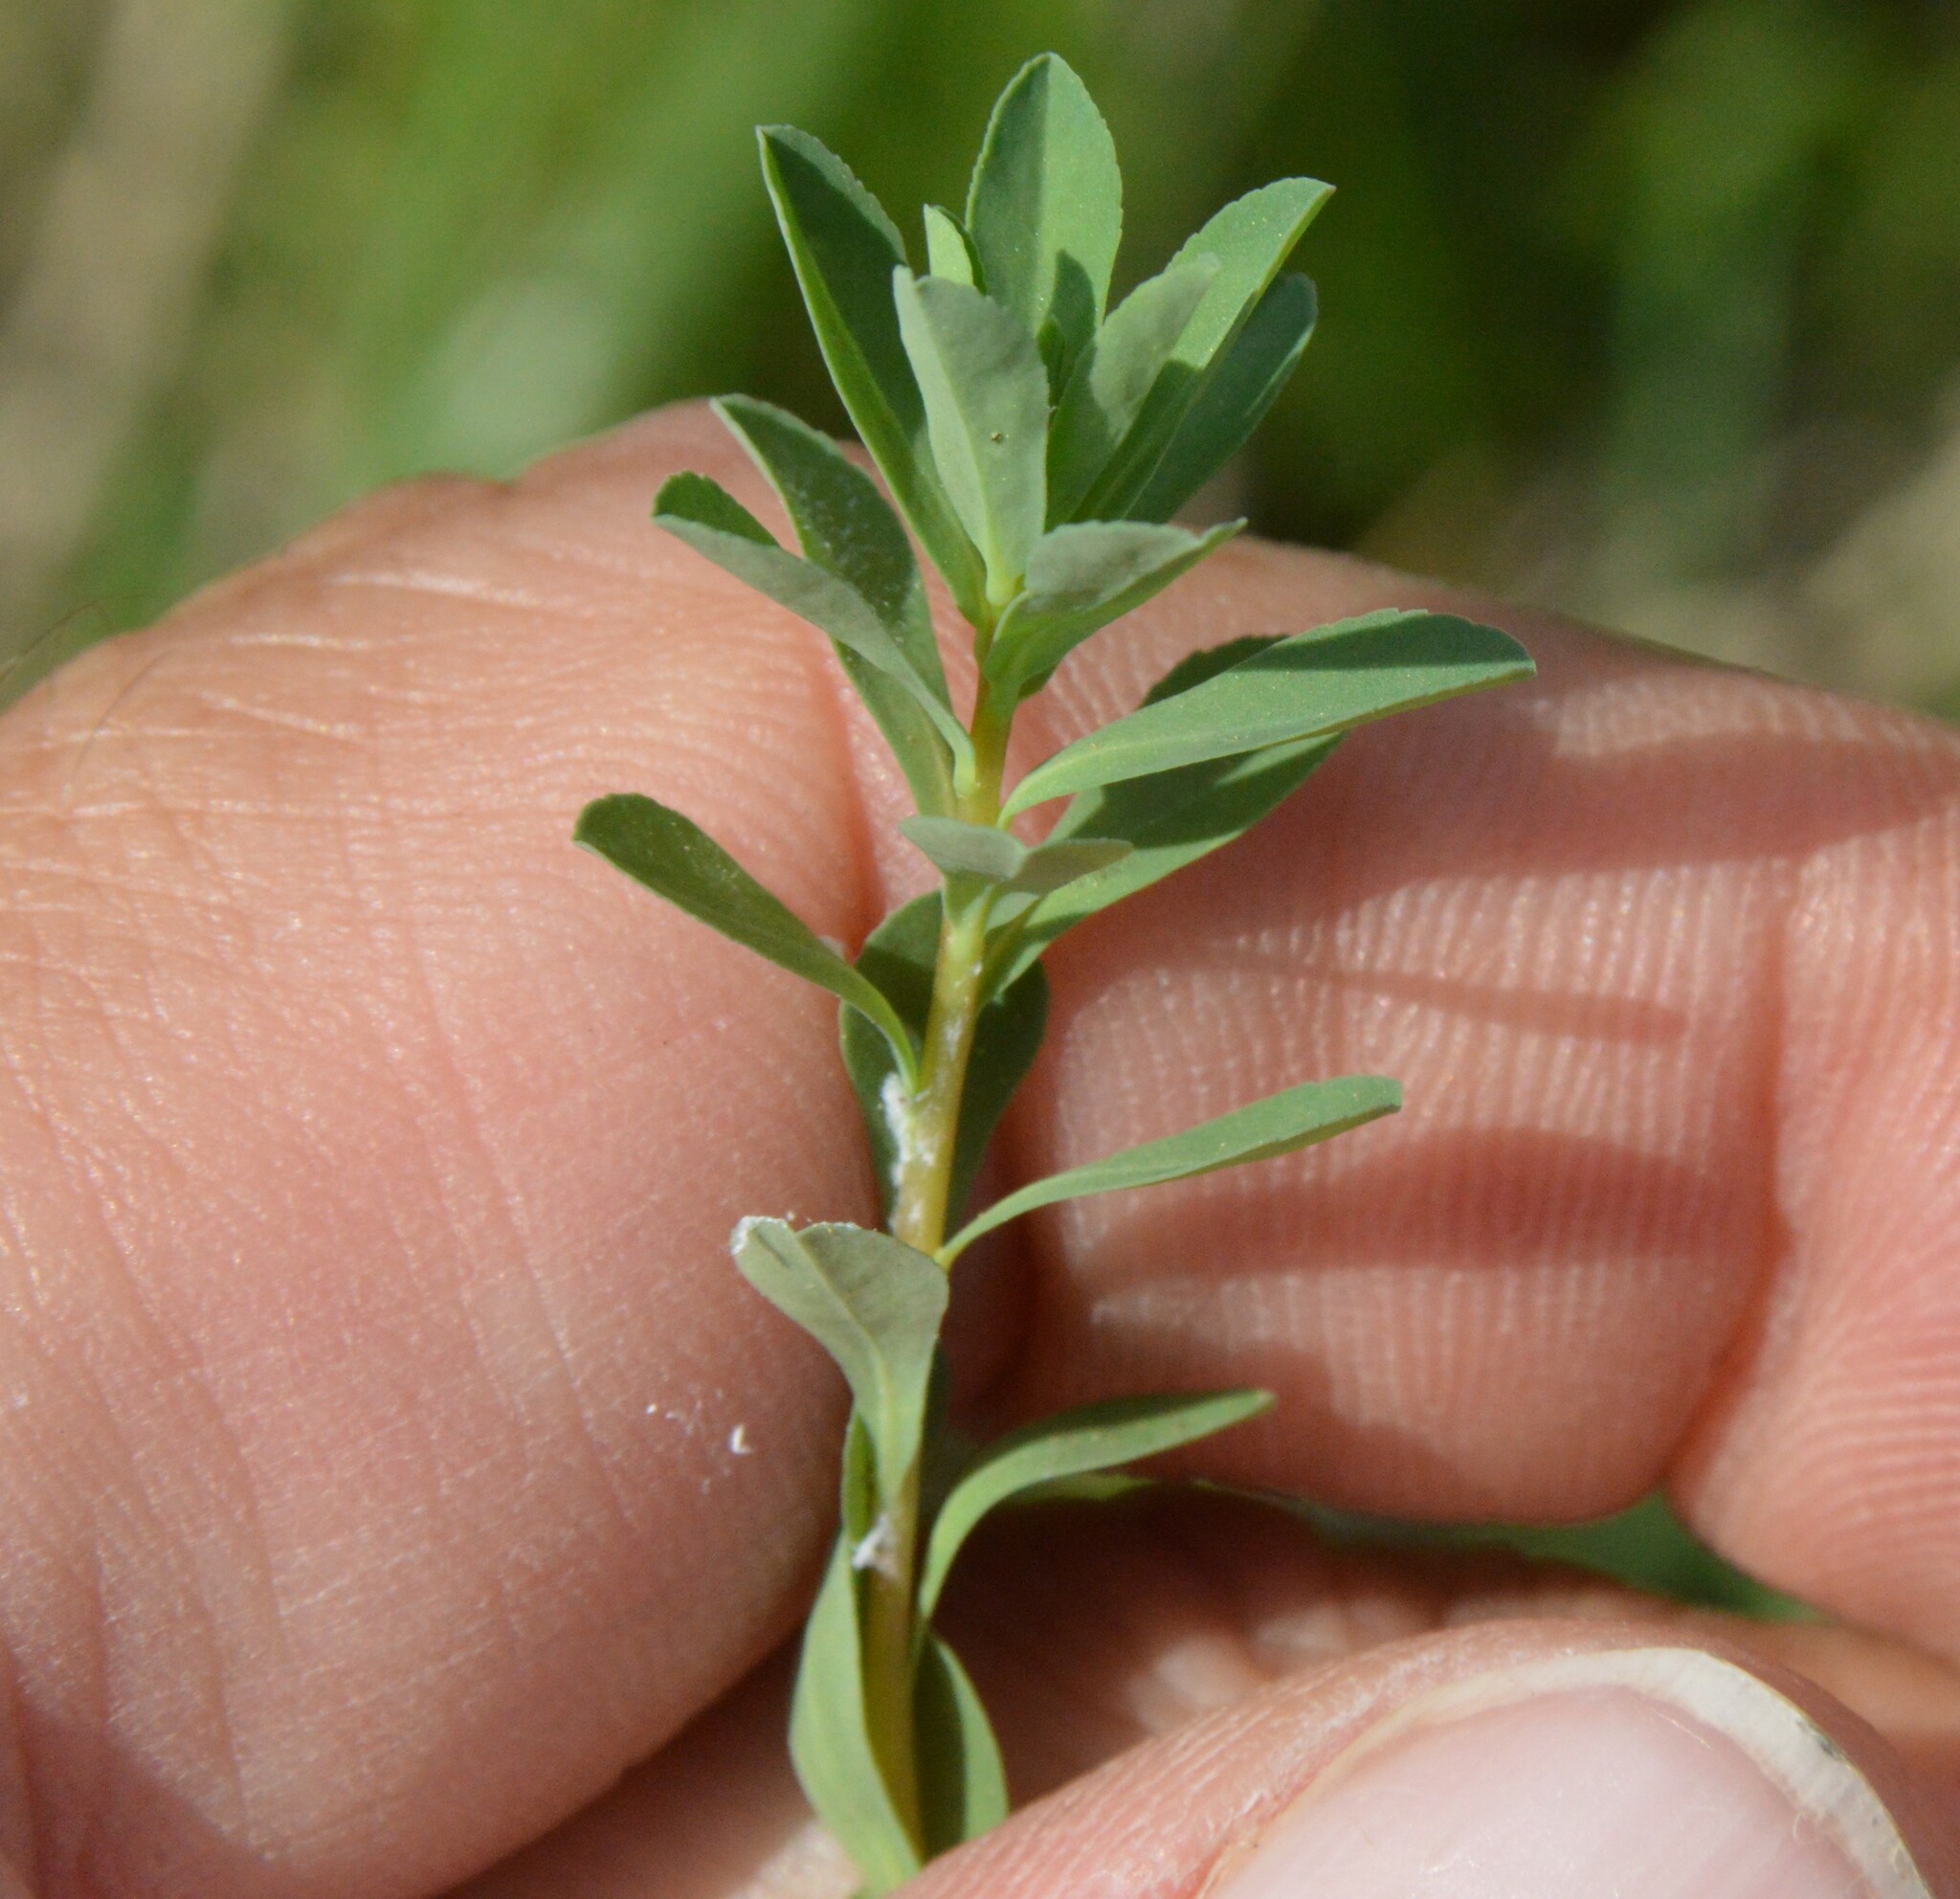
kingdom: Plantae
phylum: Tracheophyta
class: Magnoliopsida
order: Malpighiales
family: Euphorbiaceae
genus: Euphorbia
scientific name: Euphorbia texana
